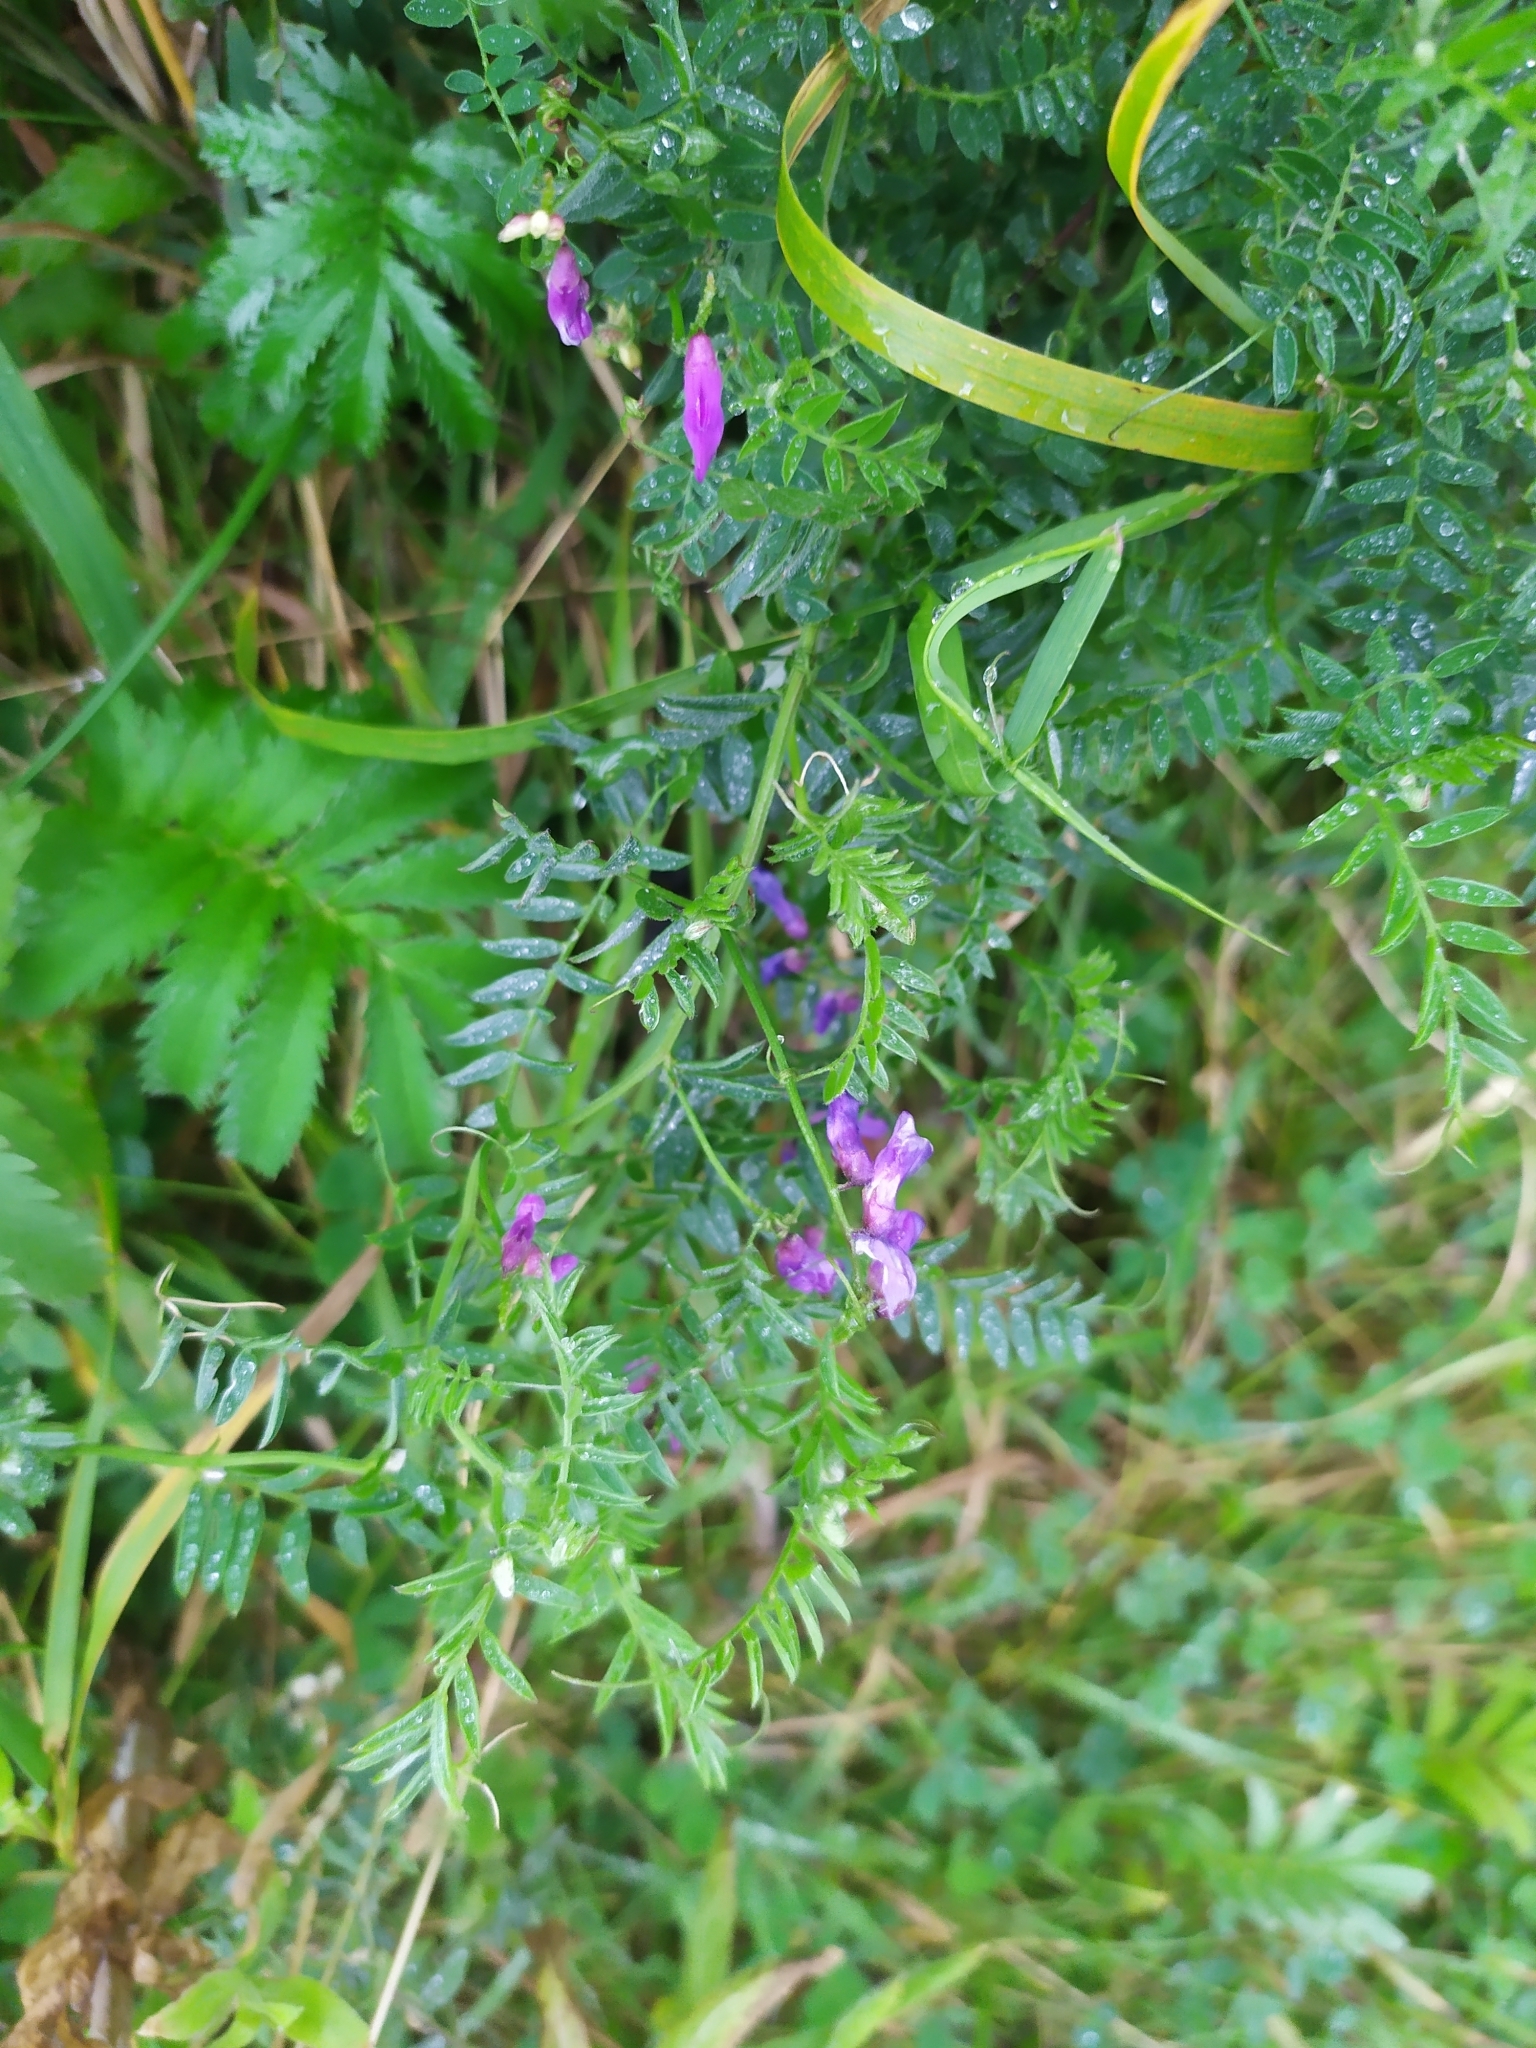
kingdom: Plantae
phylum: Tracheophyta
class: Magnoliopsida
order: Fabales
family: Fabaceae
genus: Vicia
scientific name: Vicia cracca
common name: Bird vetch
